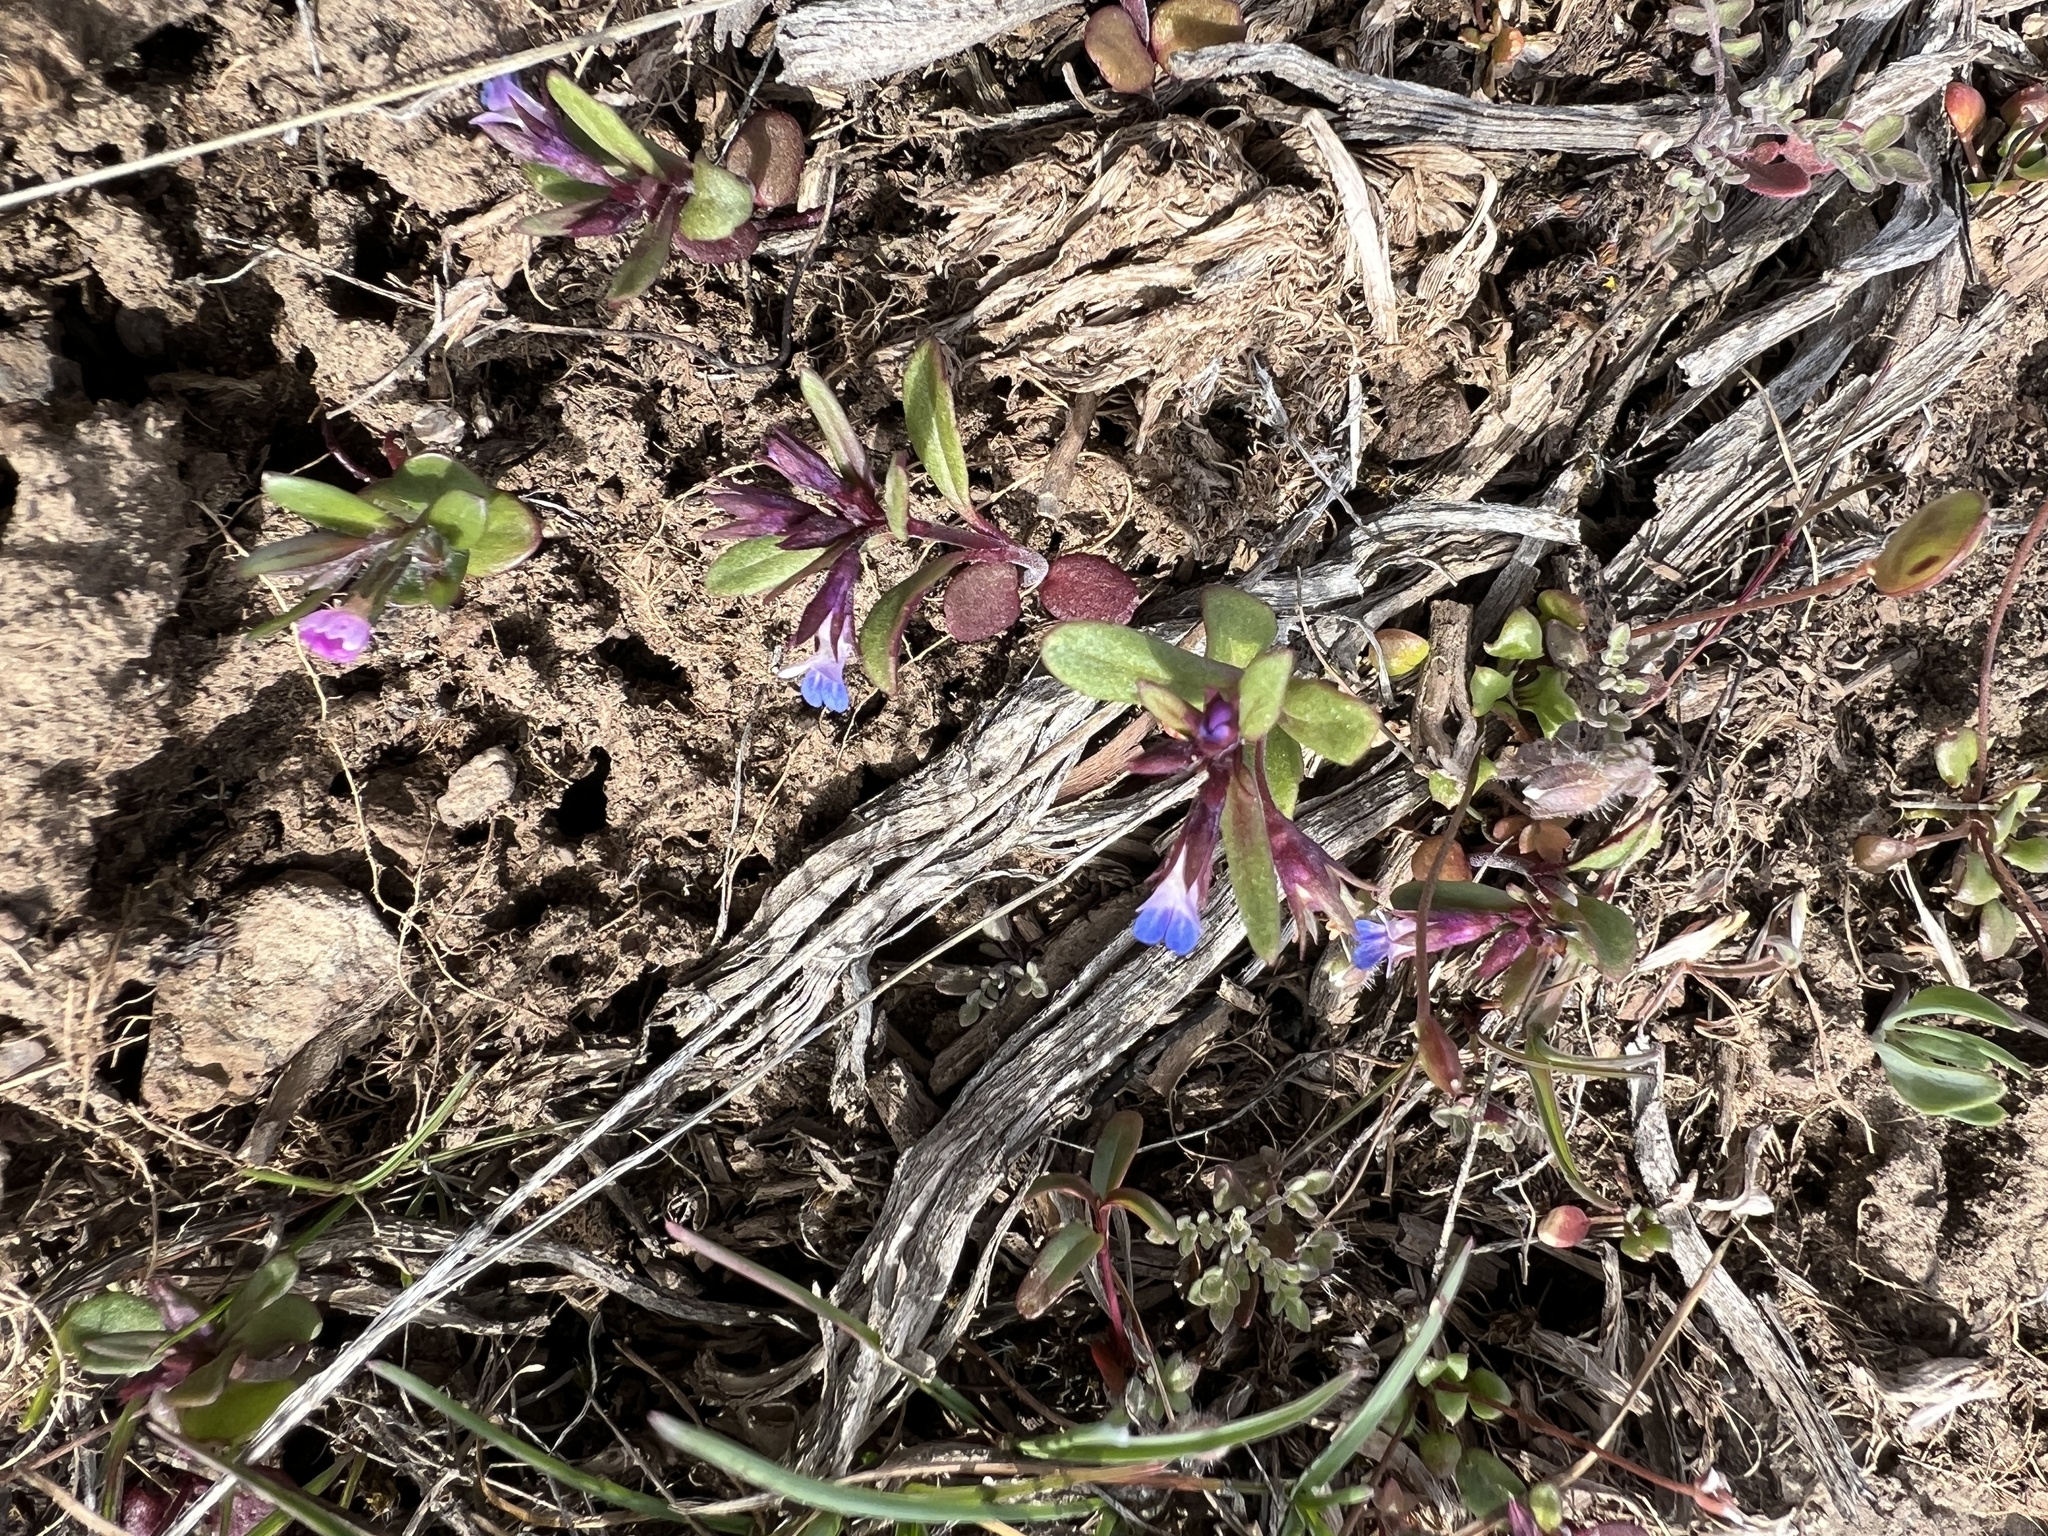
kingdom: Plantae
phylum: Tracheophyta
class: Magnoliopsida
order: Lamiales
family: Plantaginaceae
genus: Collinsia
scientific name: Collinsia parviflora
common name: Blue-lips
